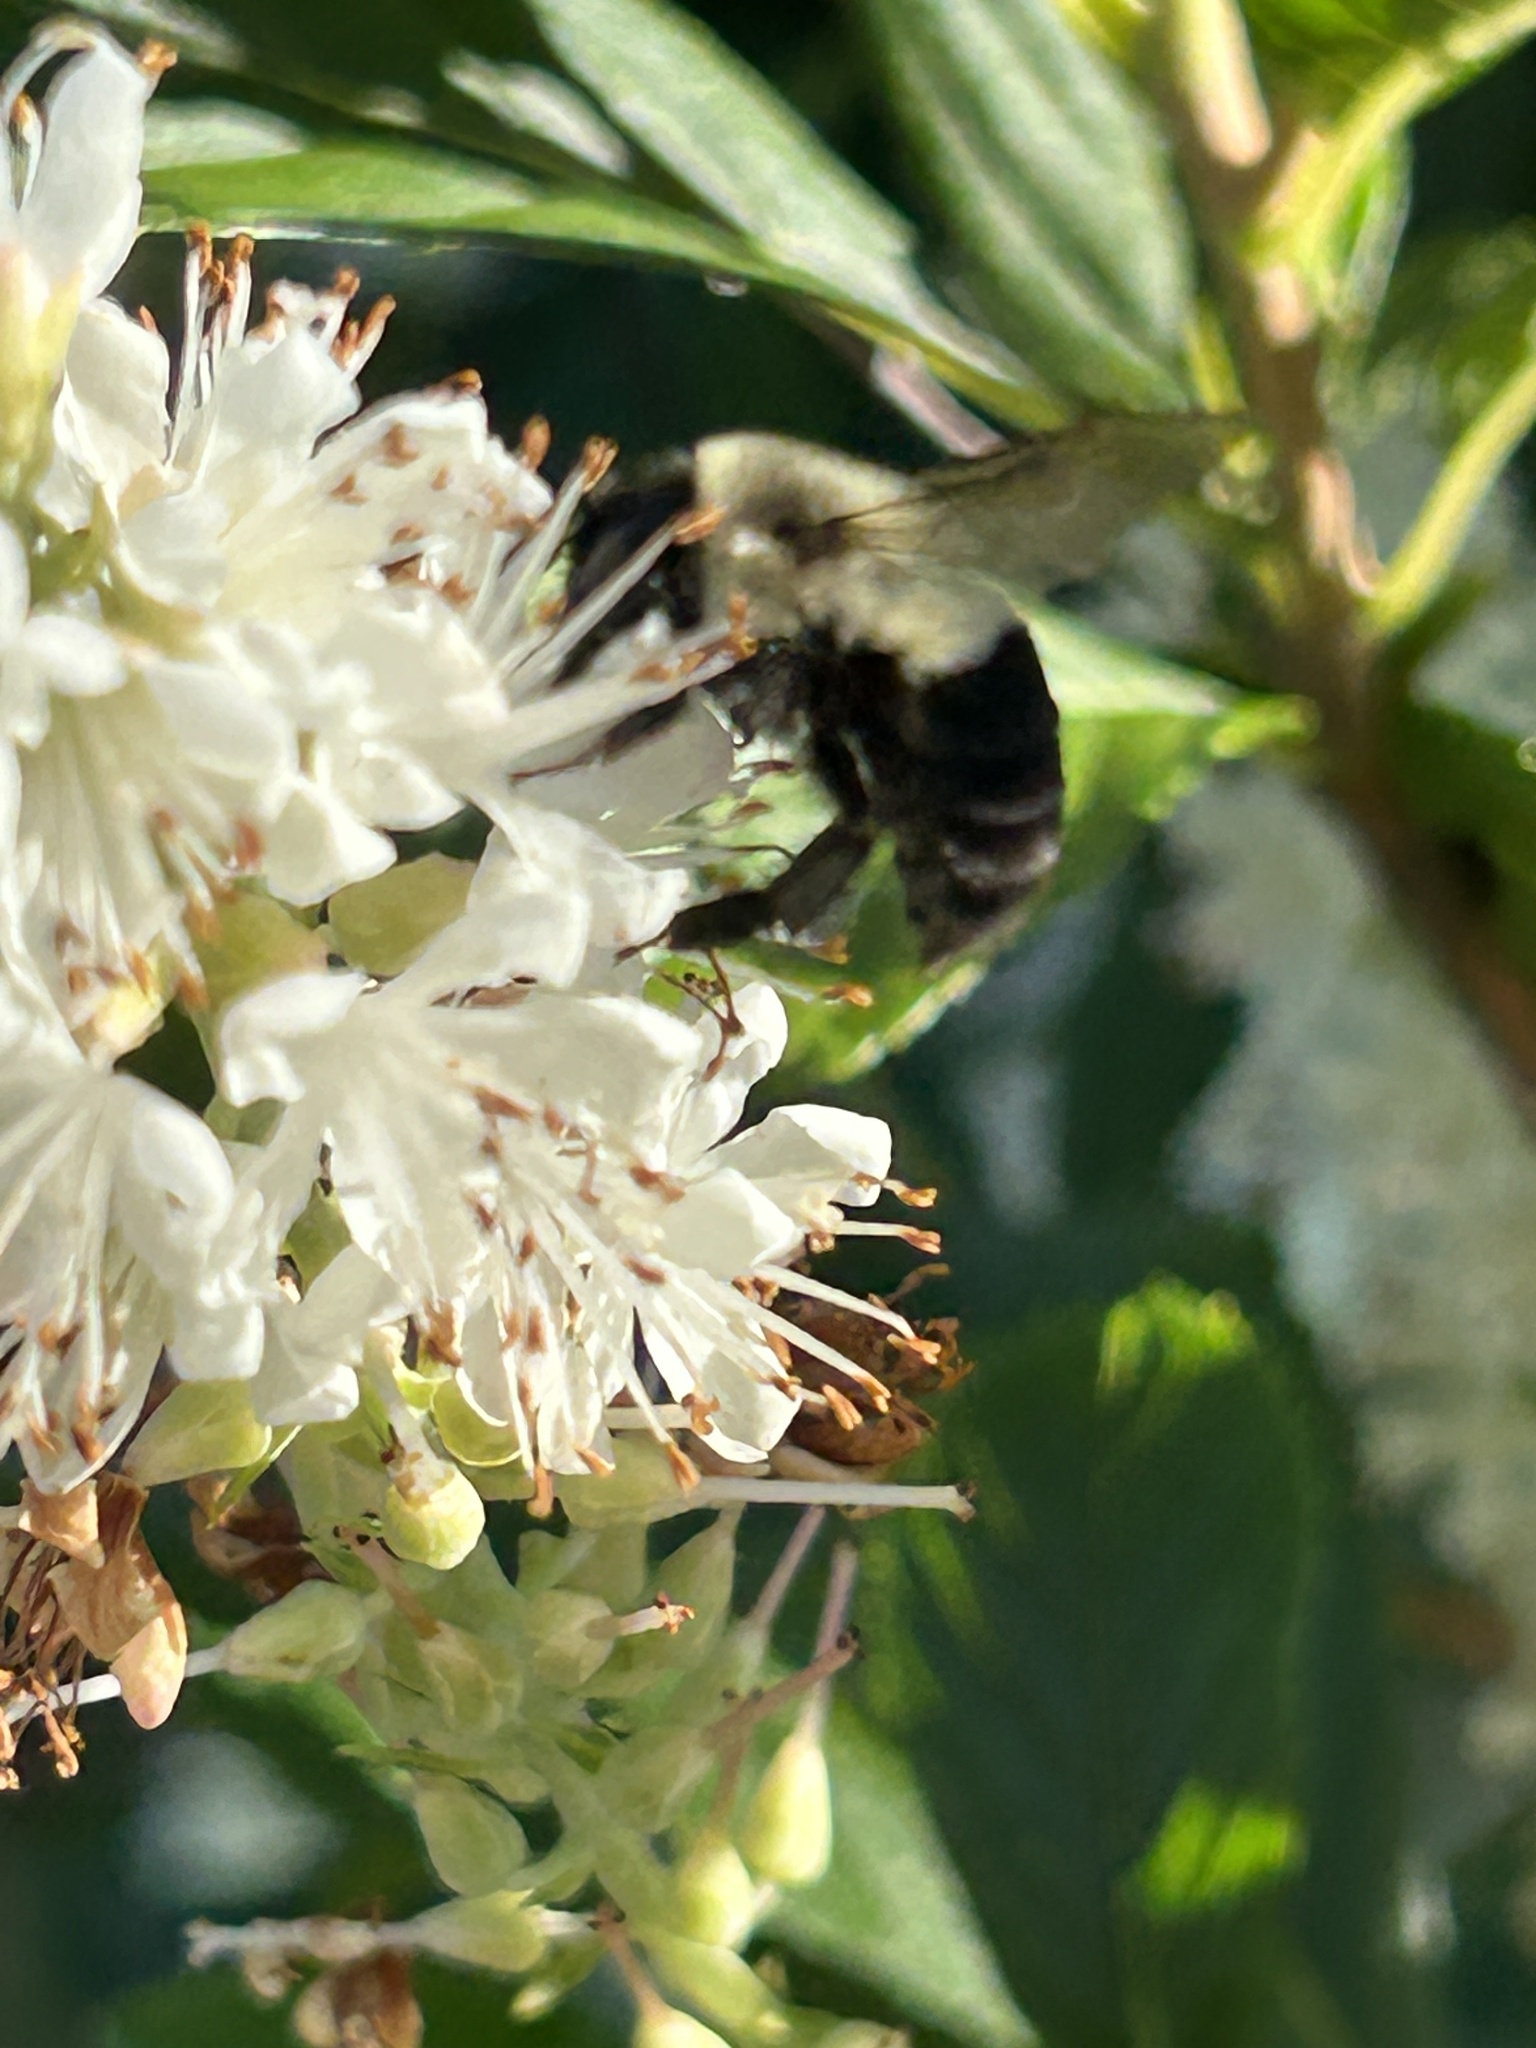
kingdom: Animalia
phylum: Arthropoda
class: Insecta
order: Hymenoptera
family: Apidae
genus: Bombus
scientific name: Bombus impatiens
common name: Common eastern bumble bee
